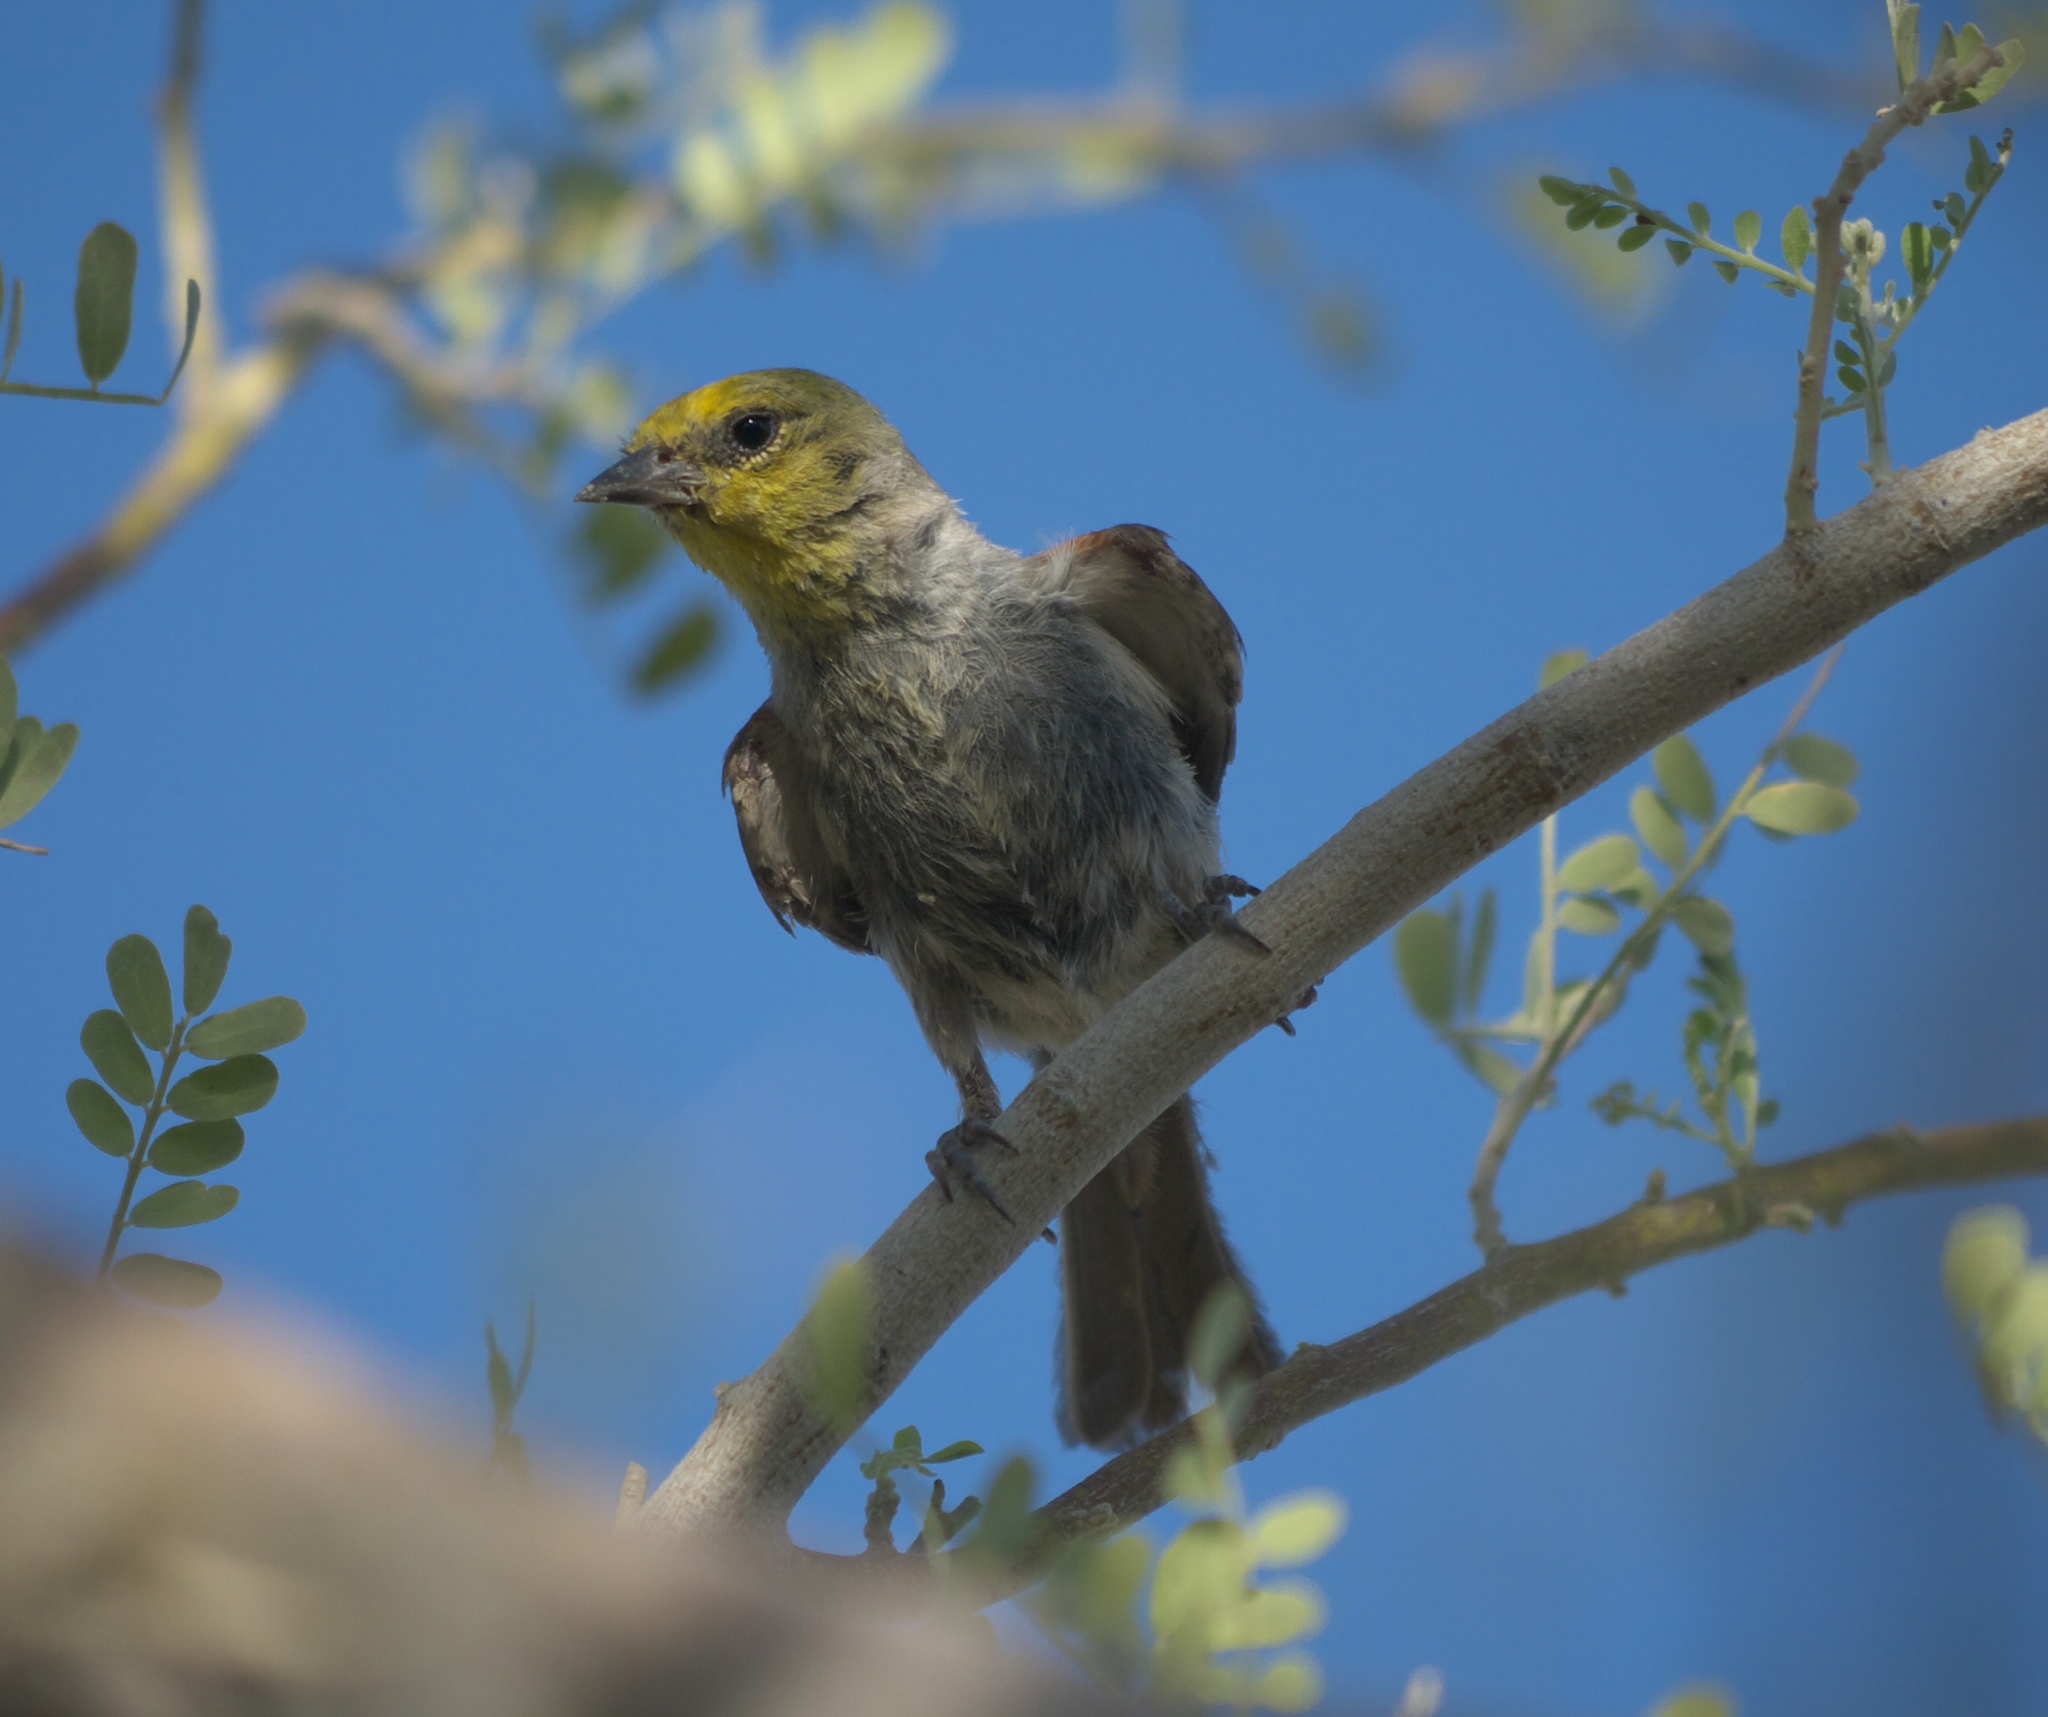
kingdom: Animalia
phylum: Chordata
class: Aves
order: Passeriformes
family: Remizidae
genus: Auriparus
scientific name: Auriparus flaviceps
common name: Verdin
